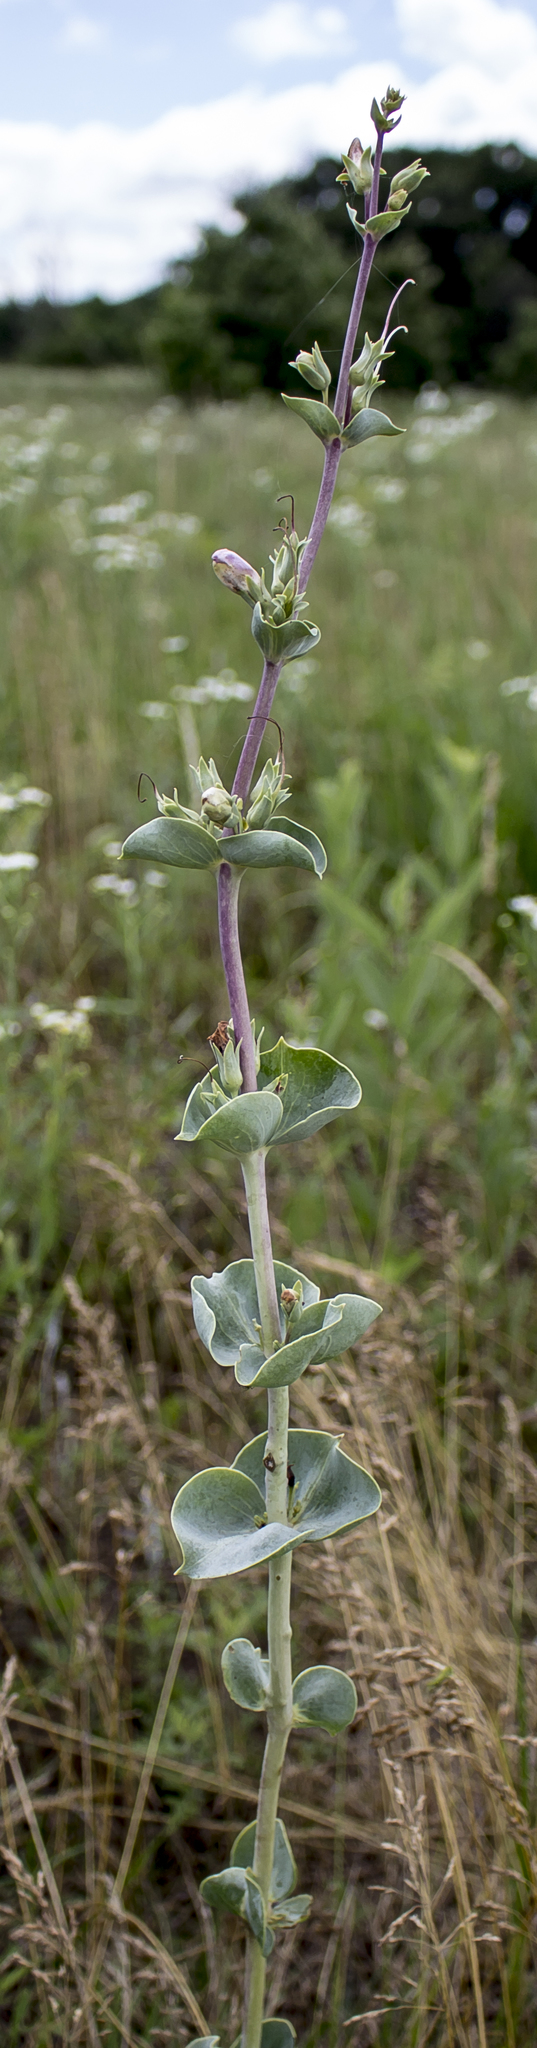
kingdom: Plantae
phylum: Tracheophyta
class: Magnoliopsida
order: Lamiales
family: Plantaginaceae
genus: Penstemon
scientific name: Penstemon
